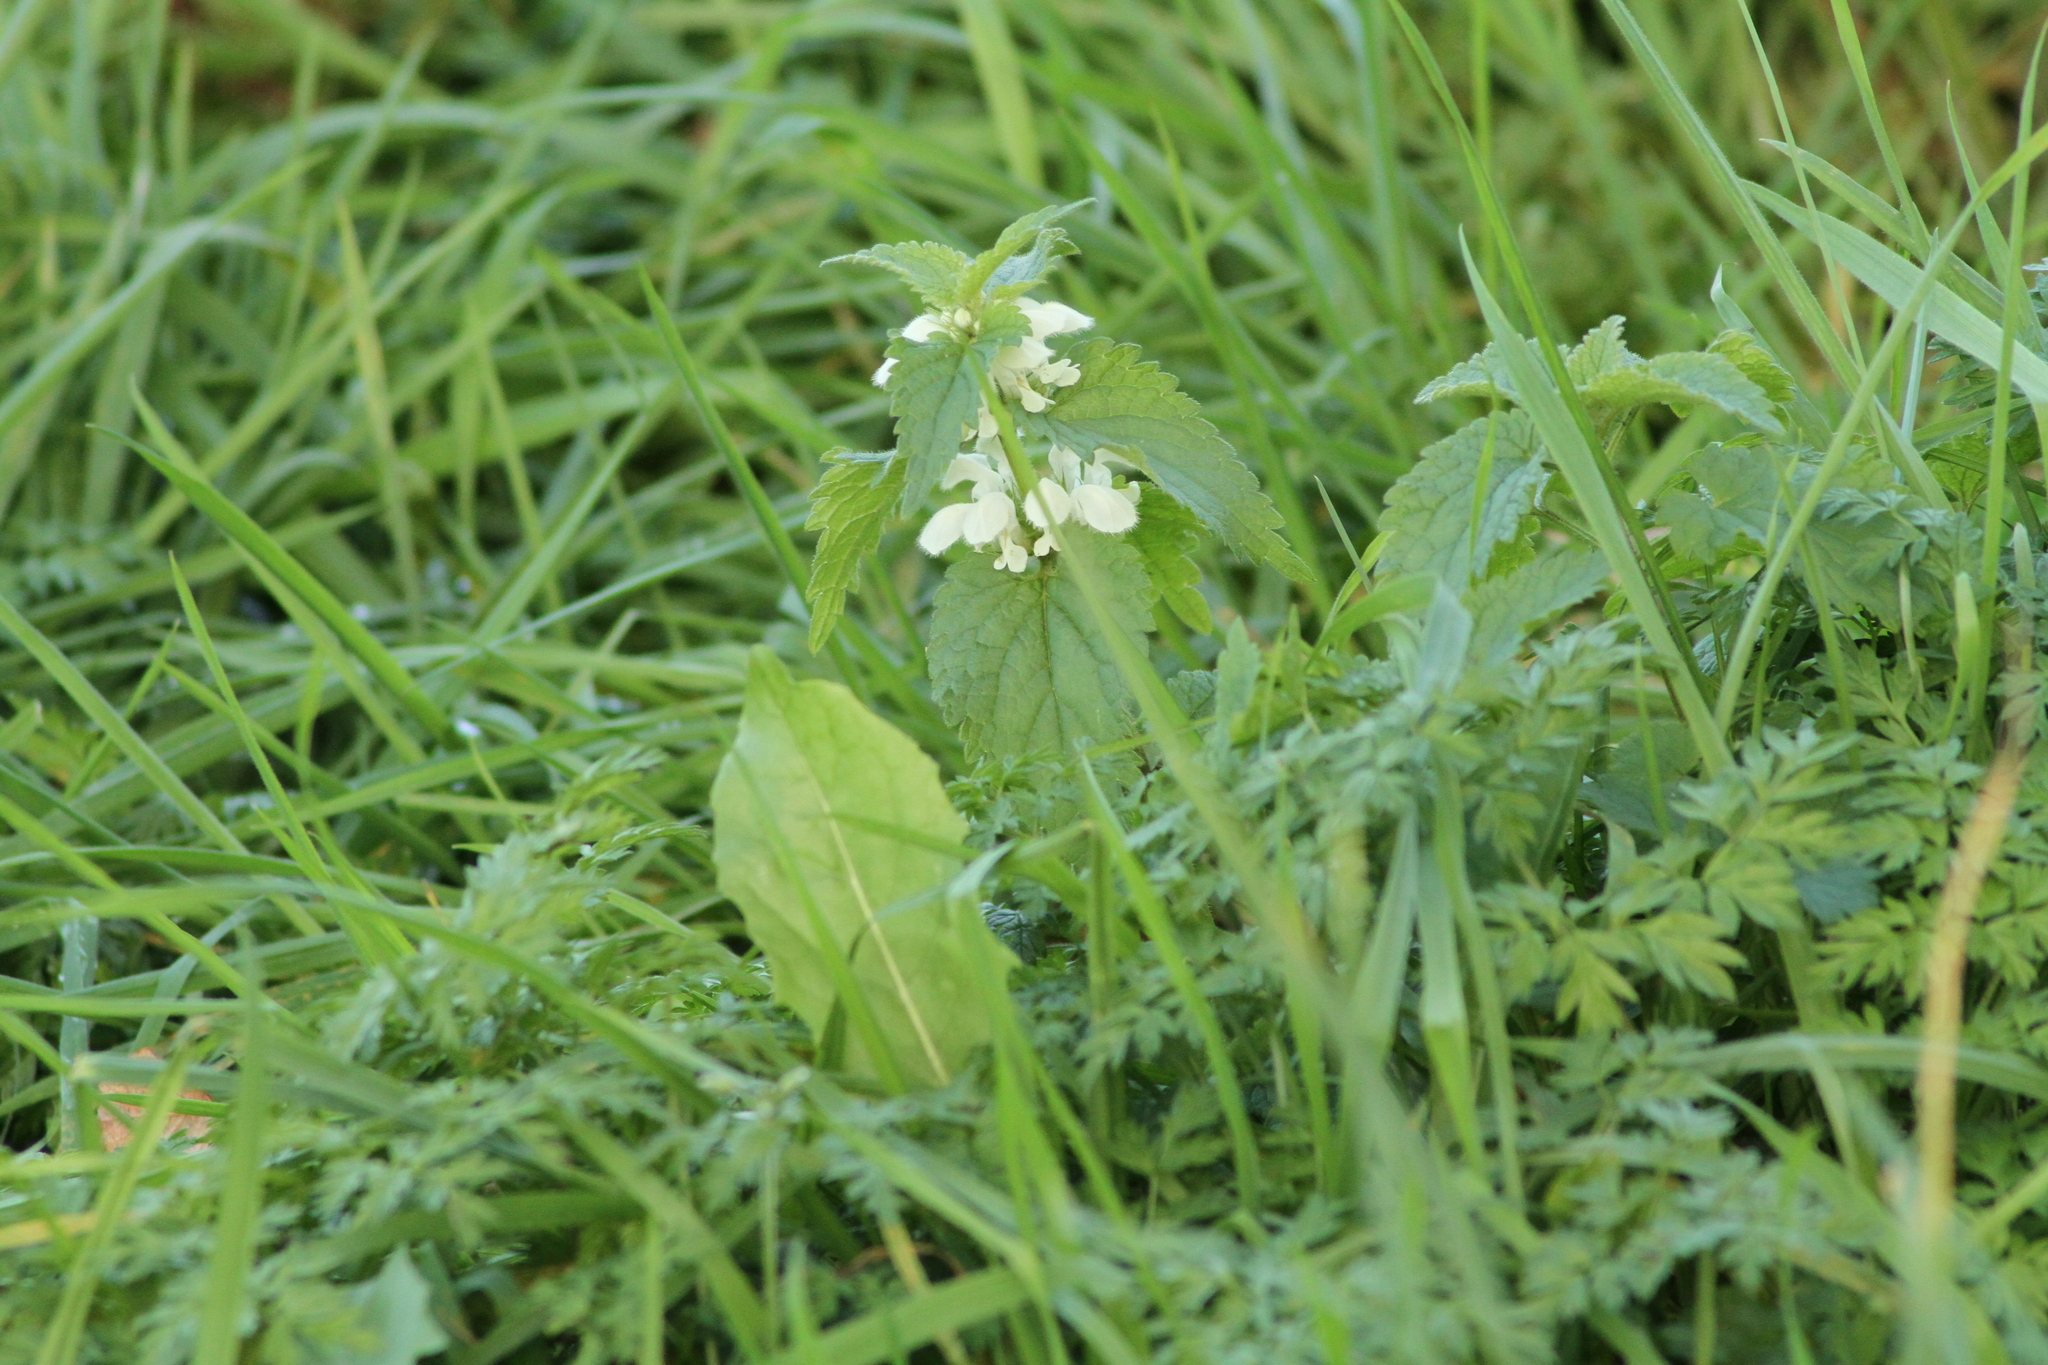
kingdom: Plantae
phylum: Tracheophyta
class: Magnoliopsida
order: Lamiales
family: Lamiaceae
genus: Lamium
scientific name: Lamium album
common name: White dead-nettle
